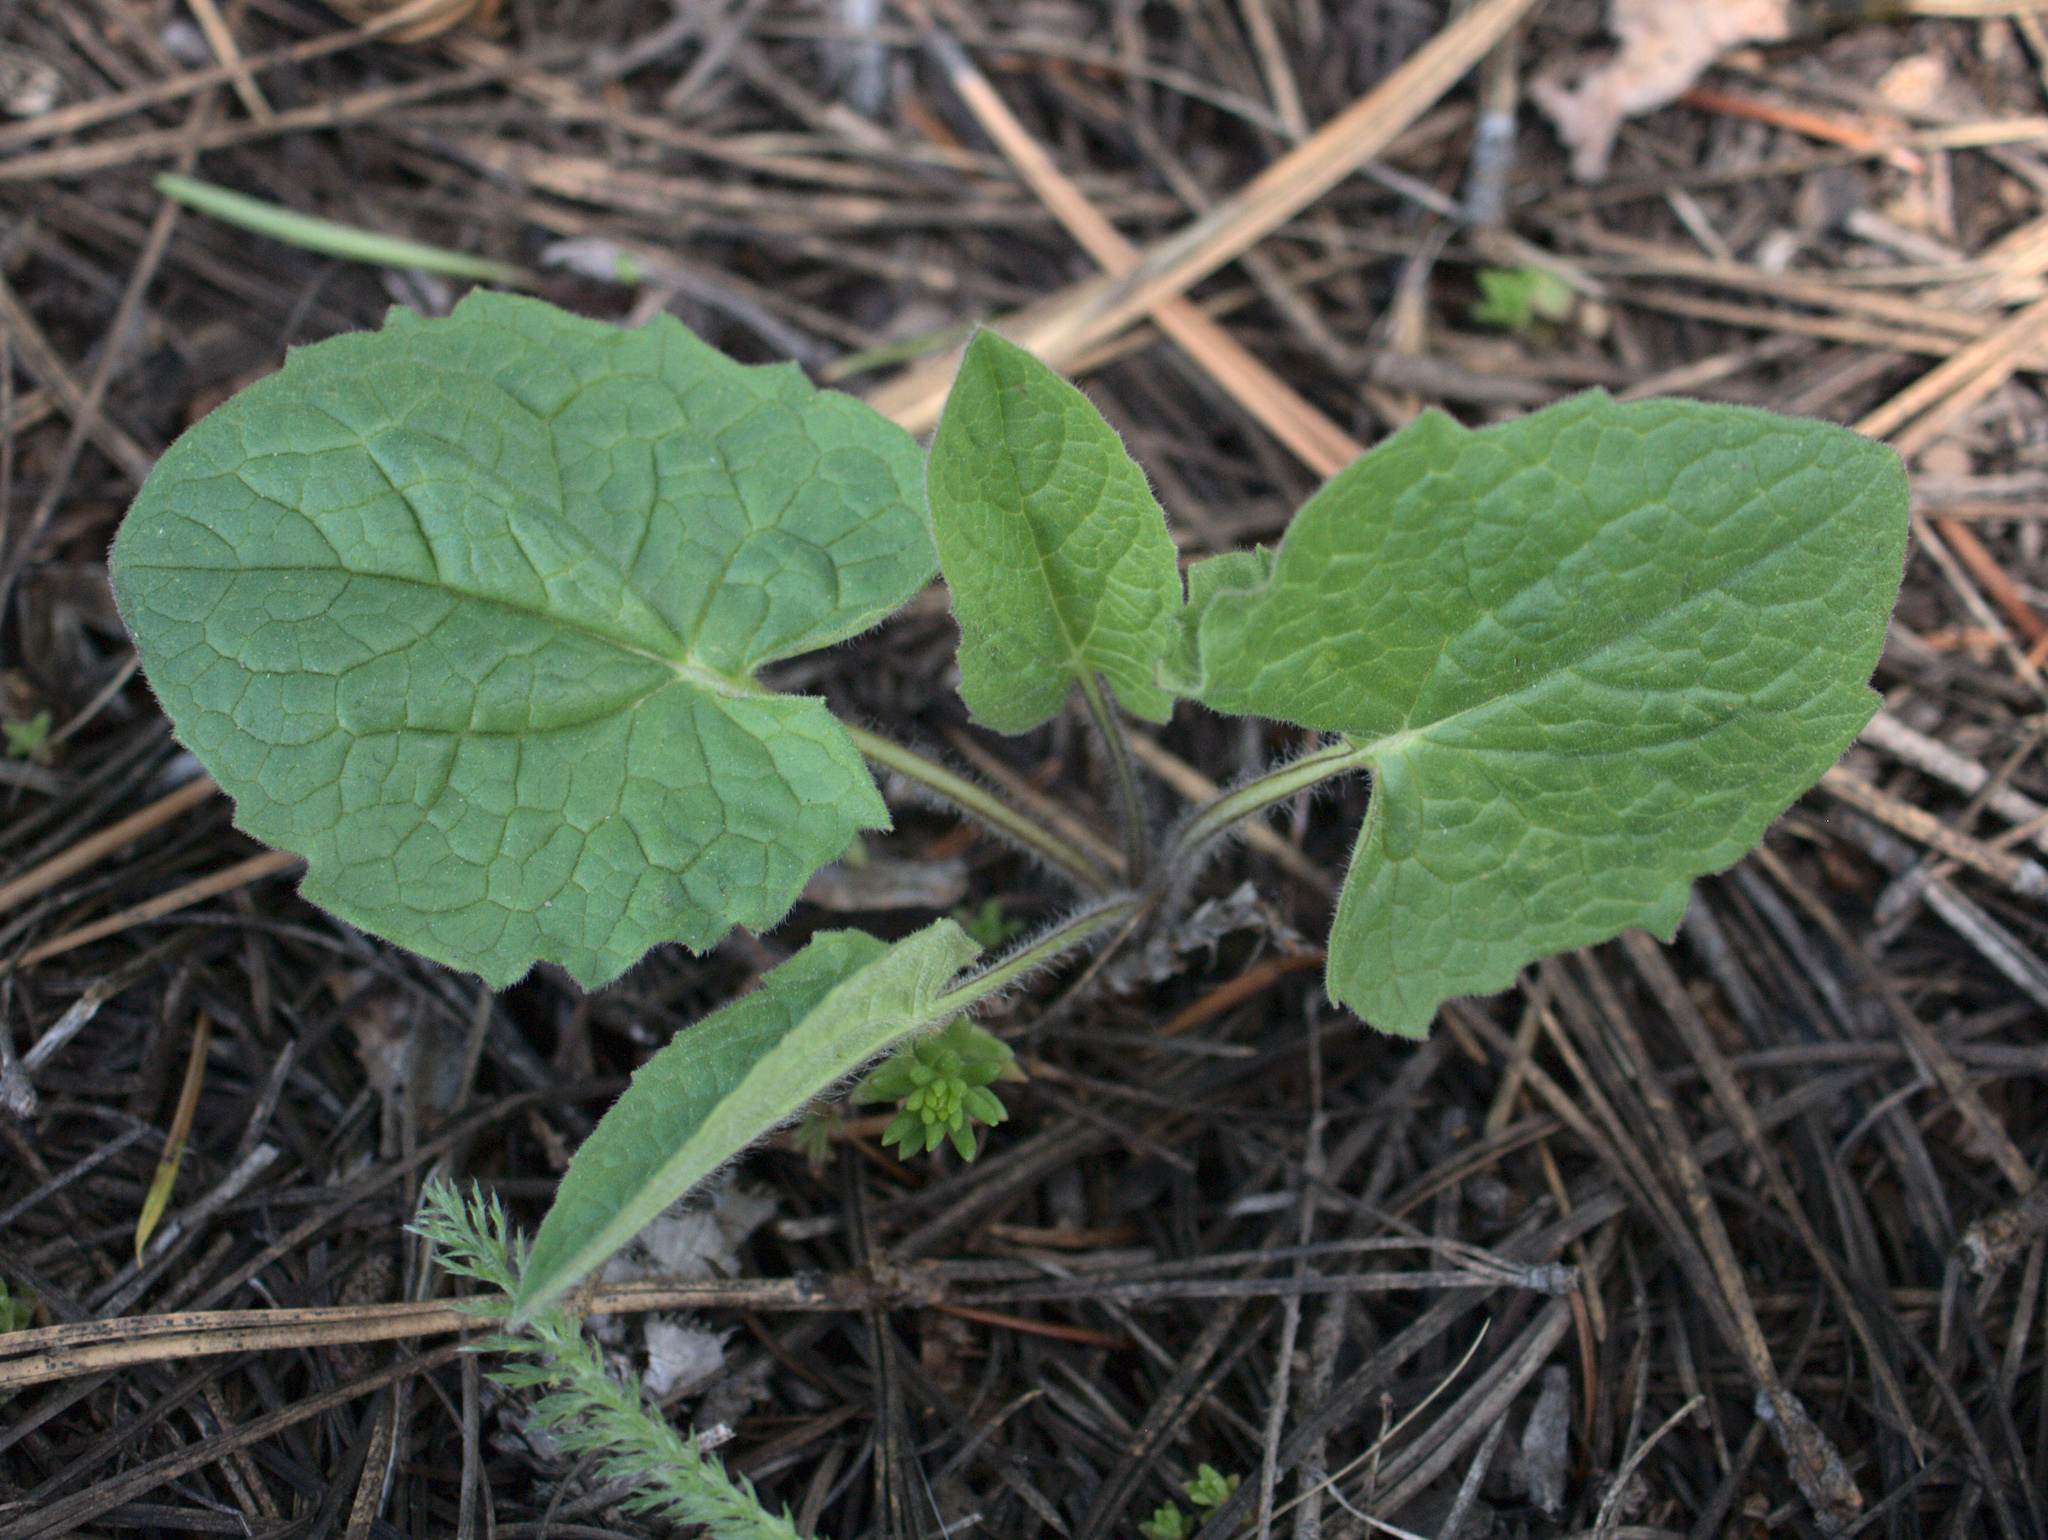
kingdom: Plantae
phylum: Tracheophyta
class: Magnoliopsida
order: Asterales
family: Asteraceae
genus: Arnica
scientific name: Arnica cordifolia
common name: Heart-leaf arnica
